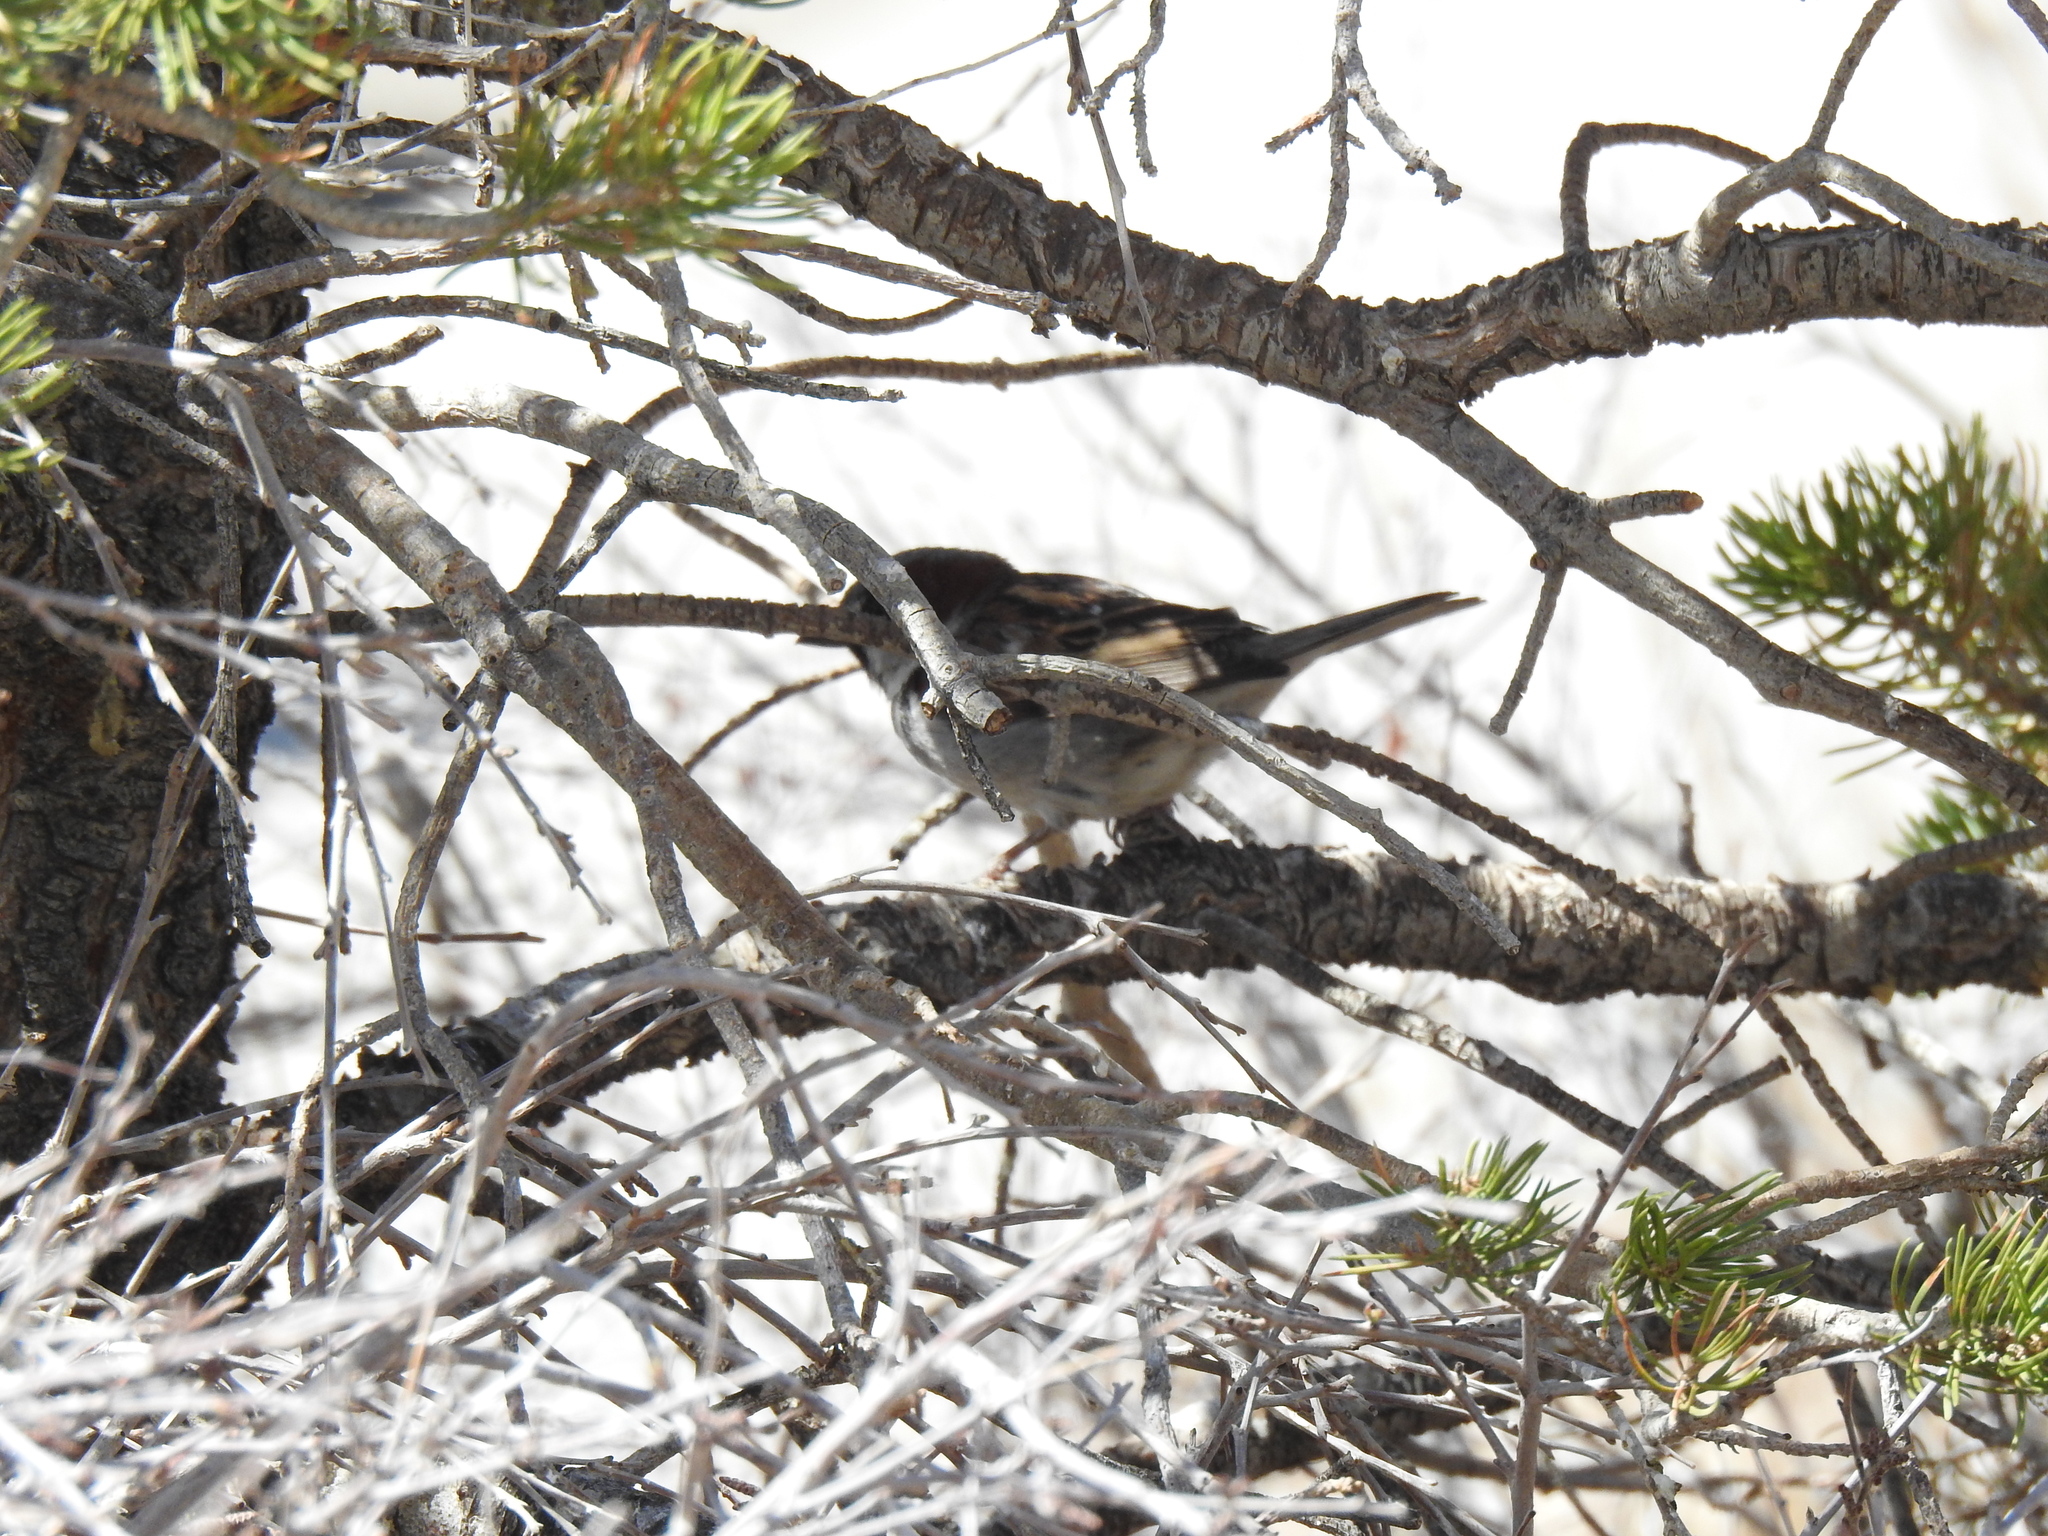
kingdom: Animalia
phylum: Chordata
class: Aves
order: Passeriformes
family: Passeridae
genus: Passer
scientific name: Passer domesticus
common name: House sparrow
